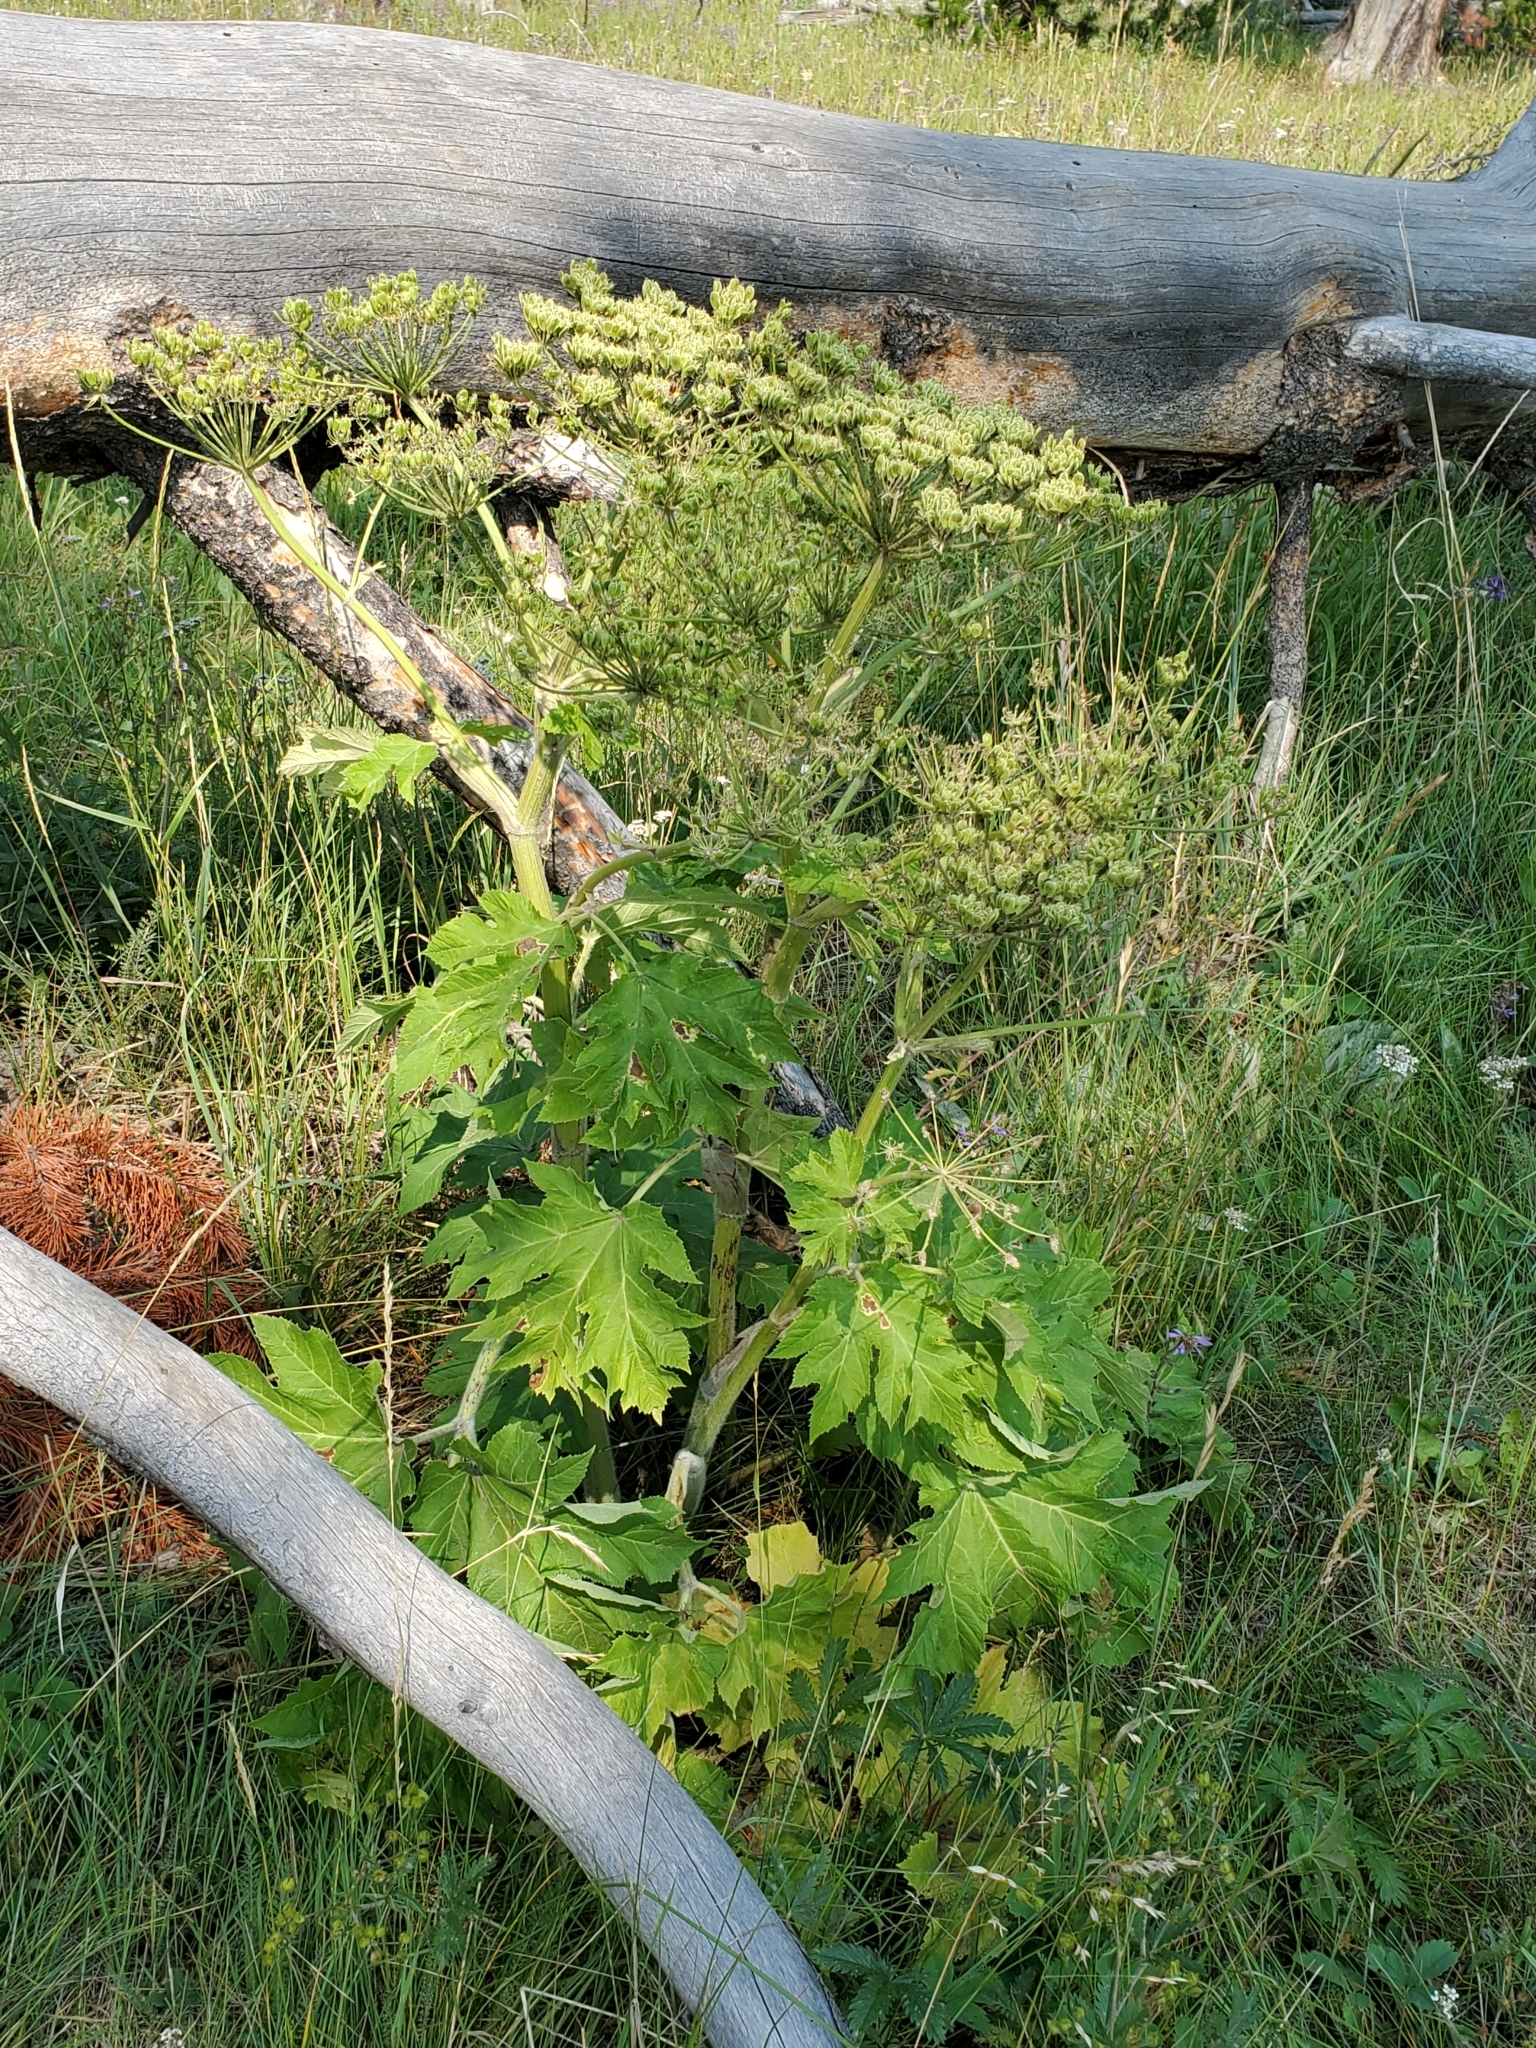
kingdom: Plantae
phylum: Tracheophyta
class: Magnoliopsida
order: Apiales
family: Apiaceae
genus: Heracleum
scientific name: Heracleum maximum
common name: American cow parsnip
